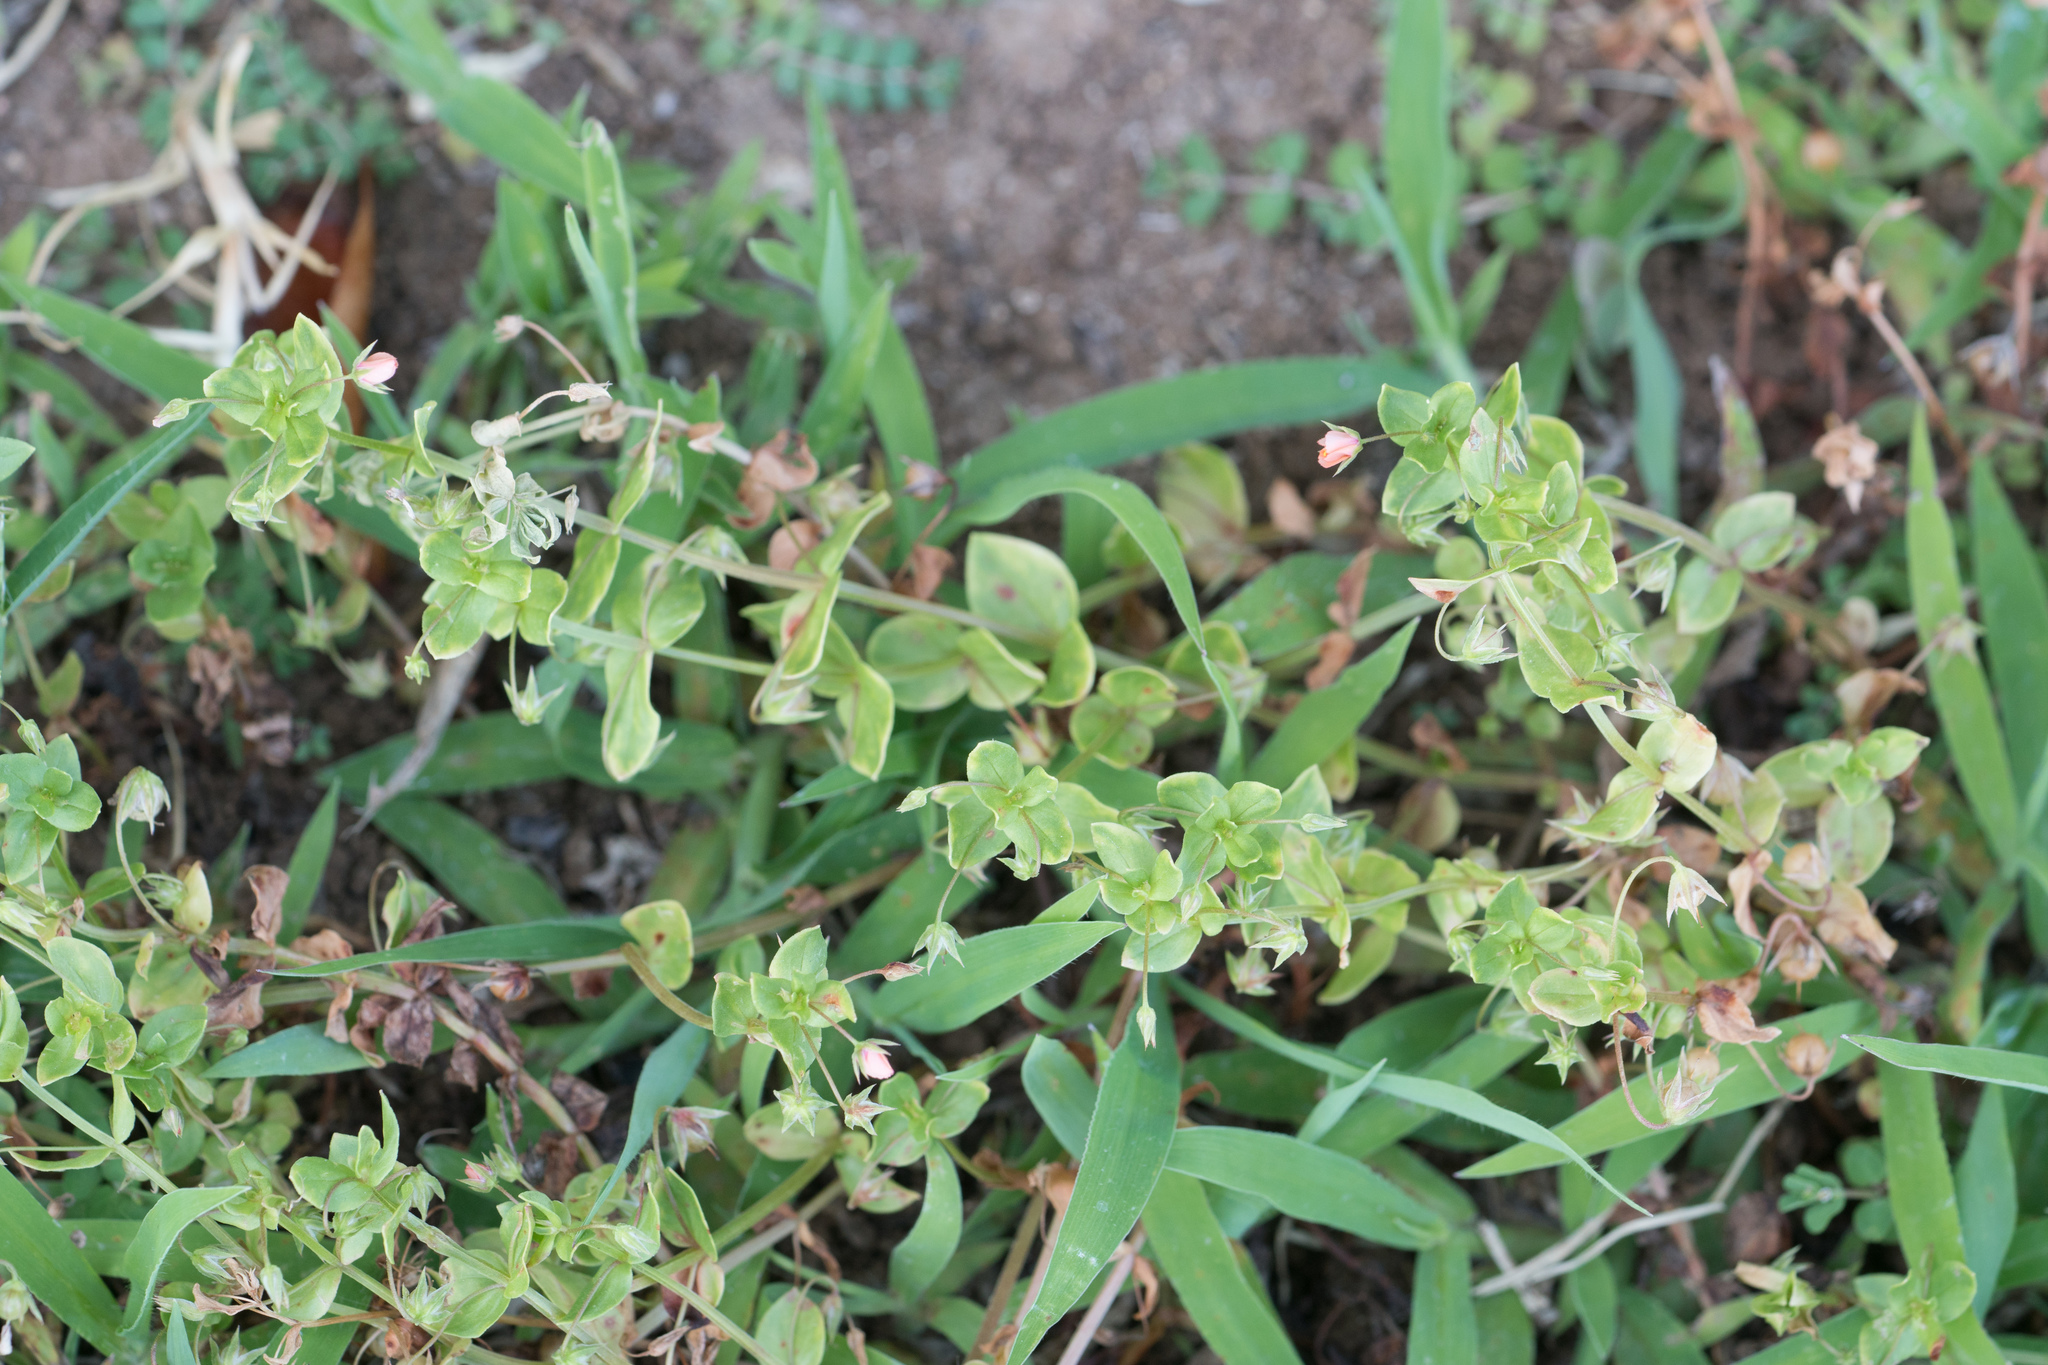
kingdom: Plantae
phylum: Tracheophyta
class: Magnoliopsida
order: Ericales
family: Primulaceae
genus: Lysimachia
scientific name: Lysimachia arvensis
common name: Scarlet pimpernel
